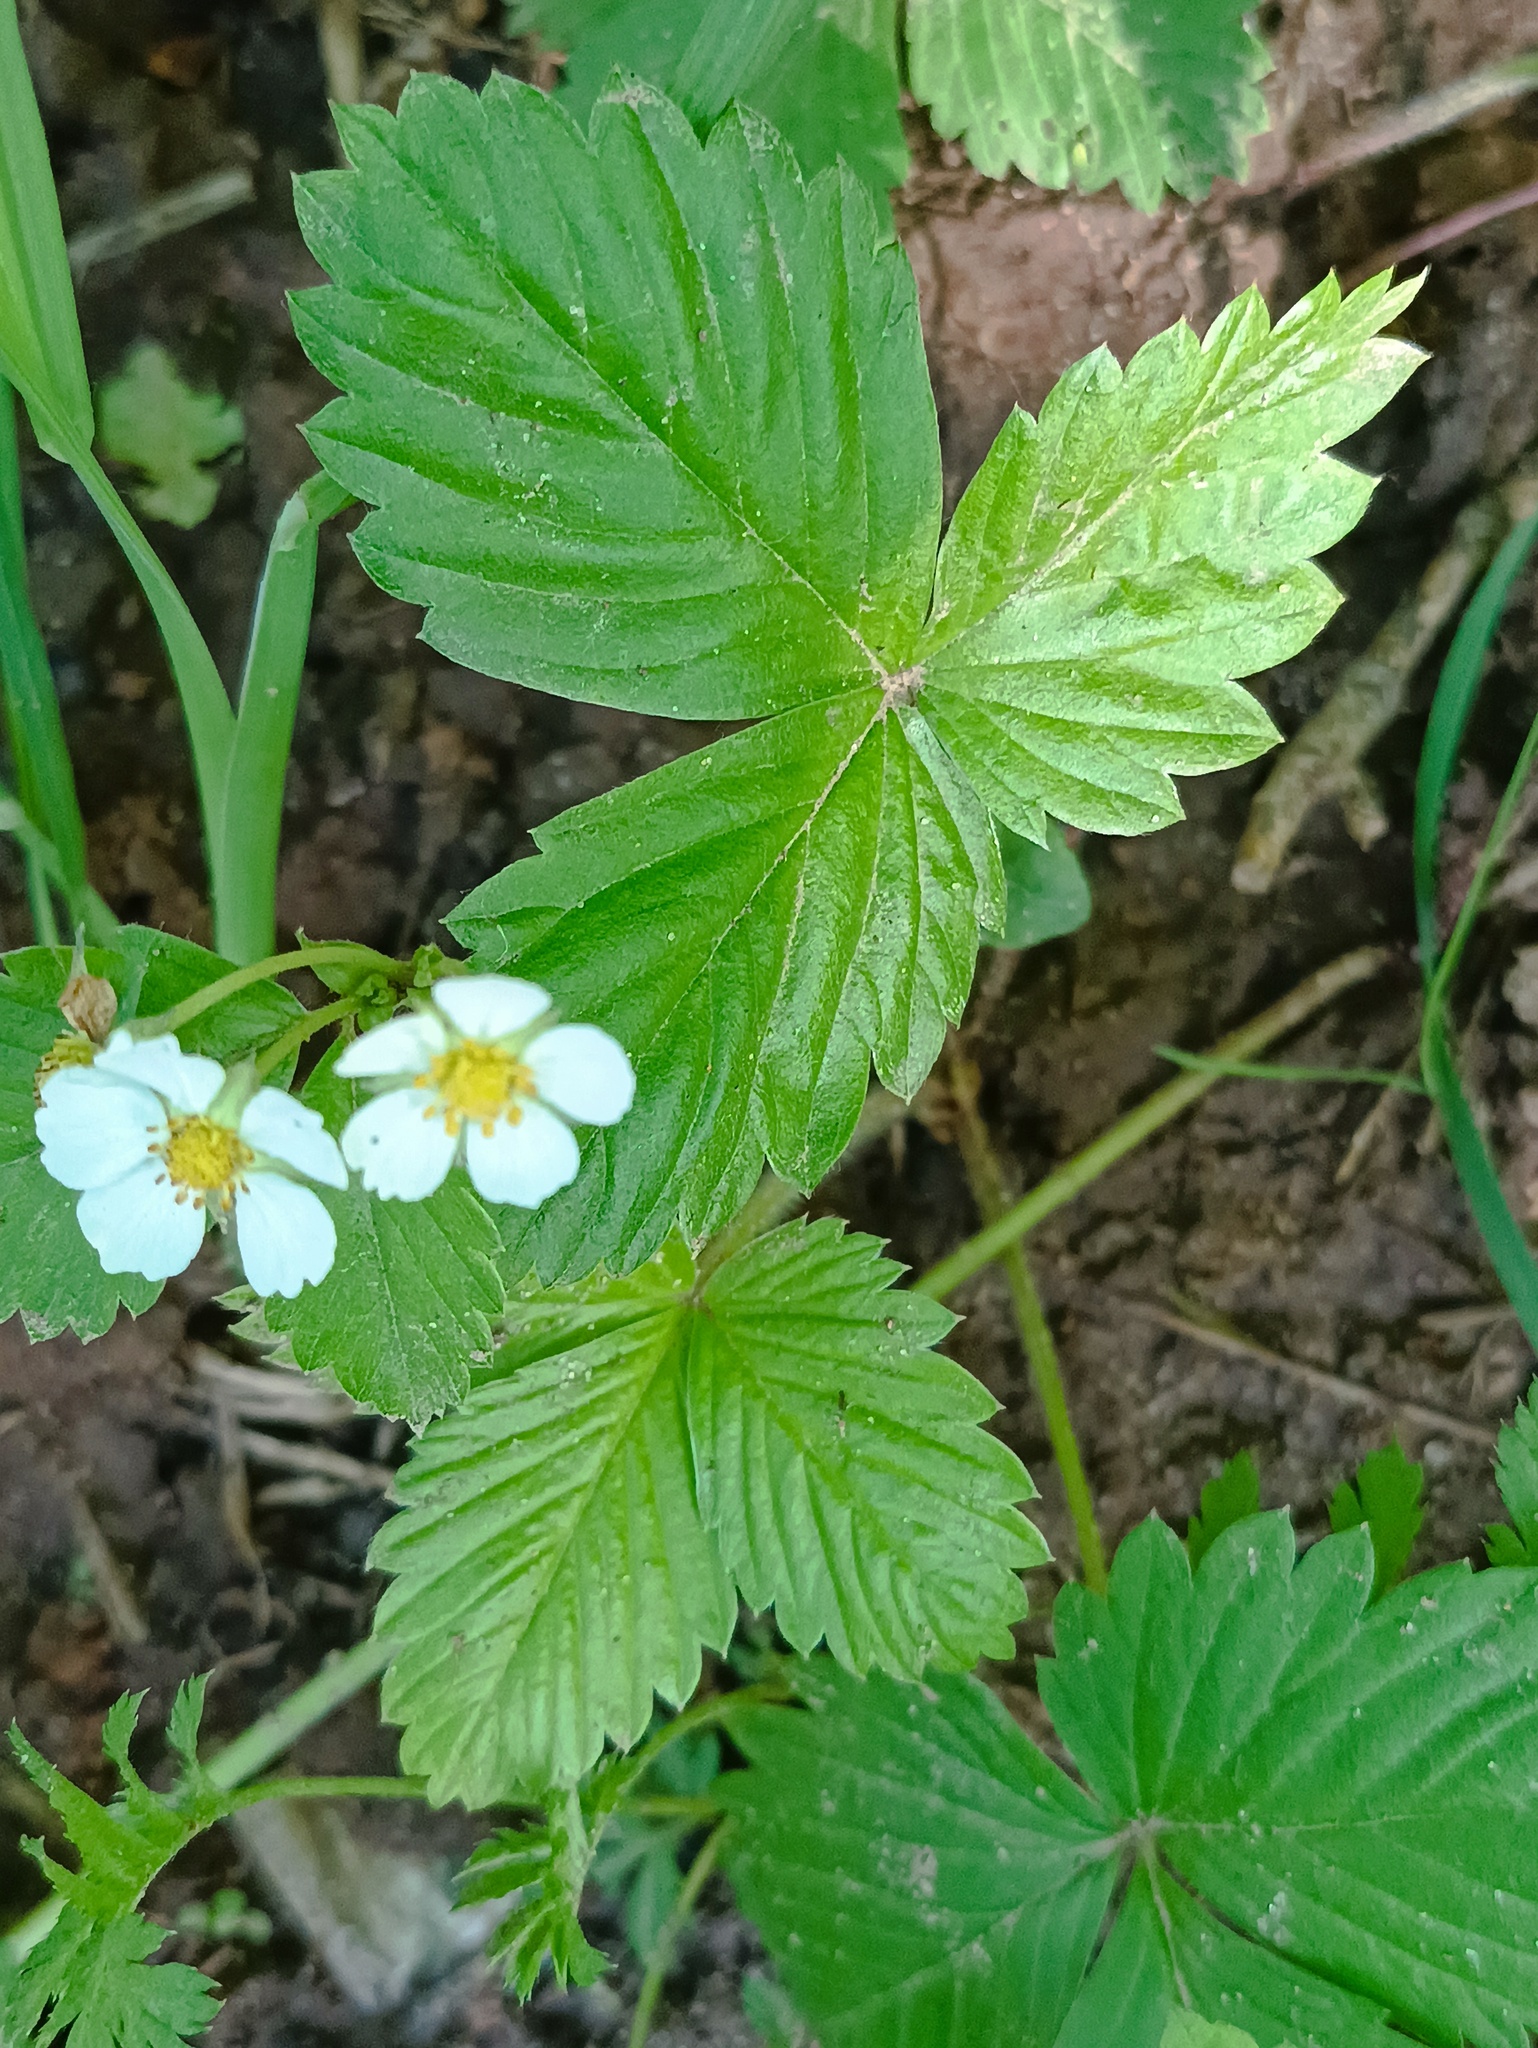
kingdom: Plantae
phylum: Tracheophyta
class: Magnoliopsida
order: Rosales
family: Rosaceae
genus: Fragaria
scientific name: Fragaria vesca
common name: Wild strawberry
